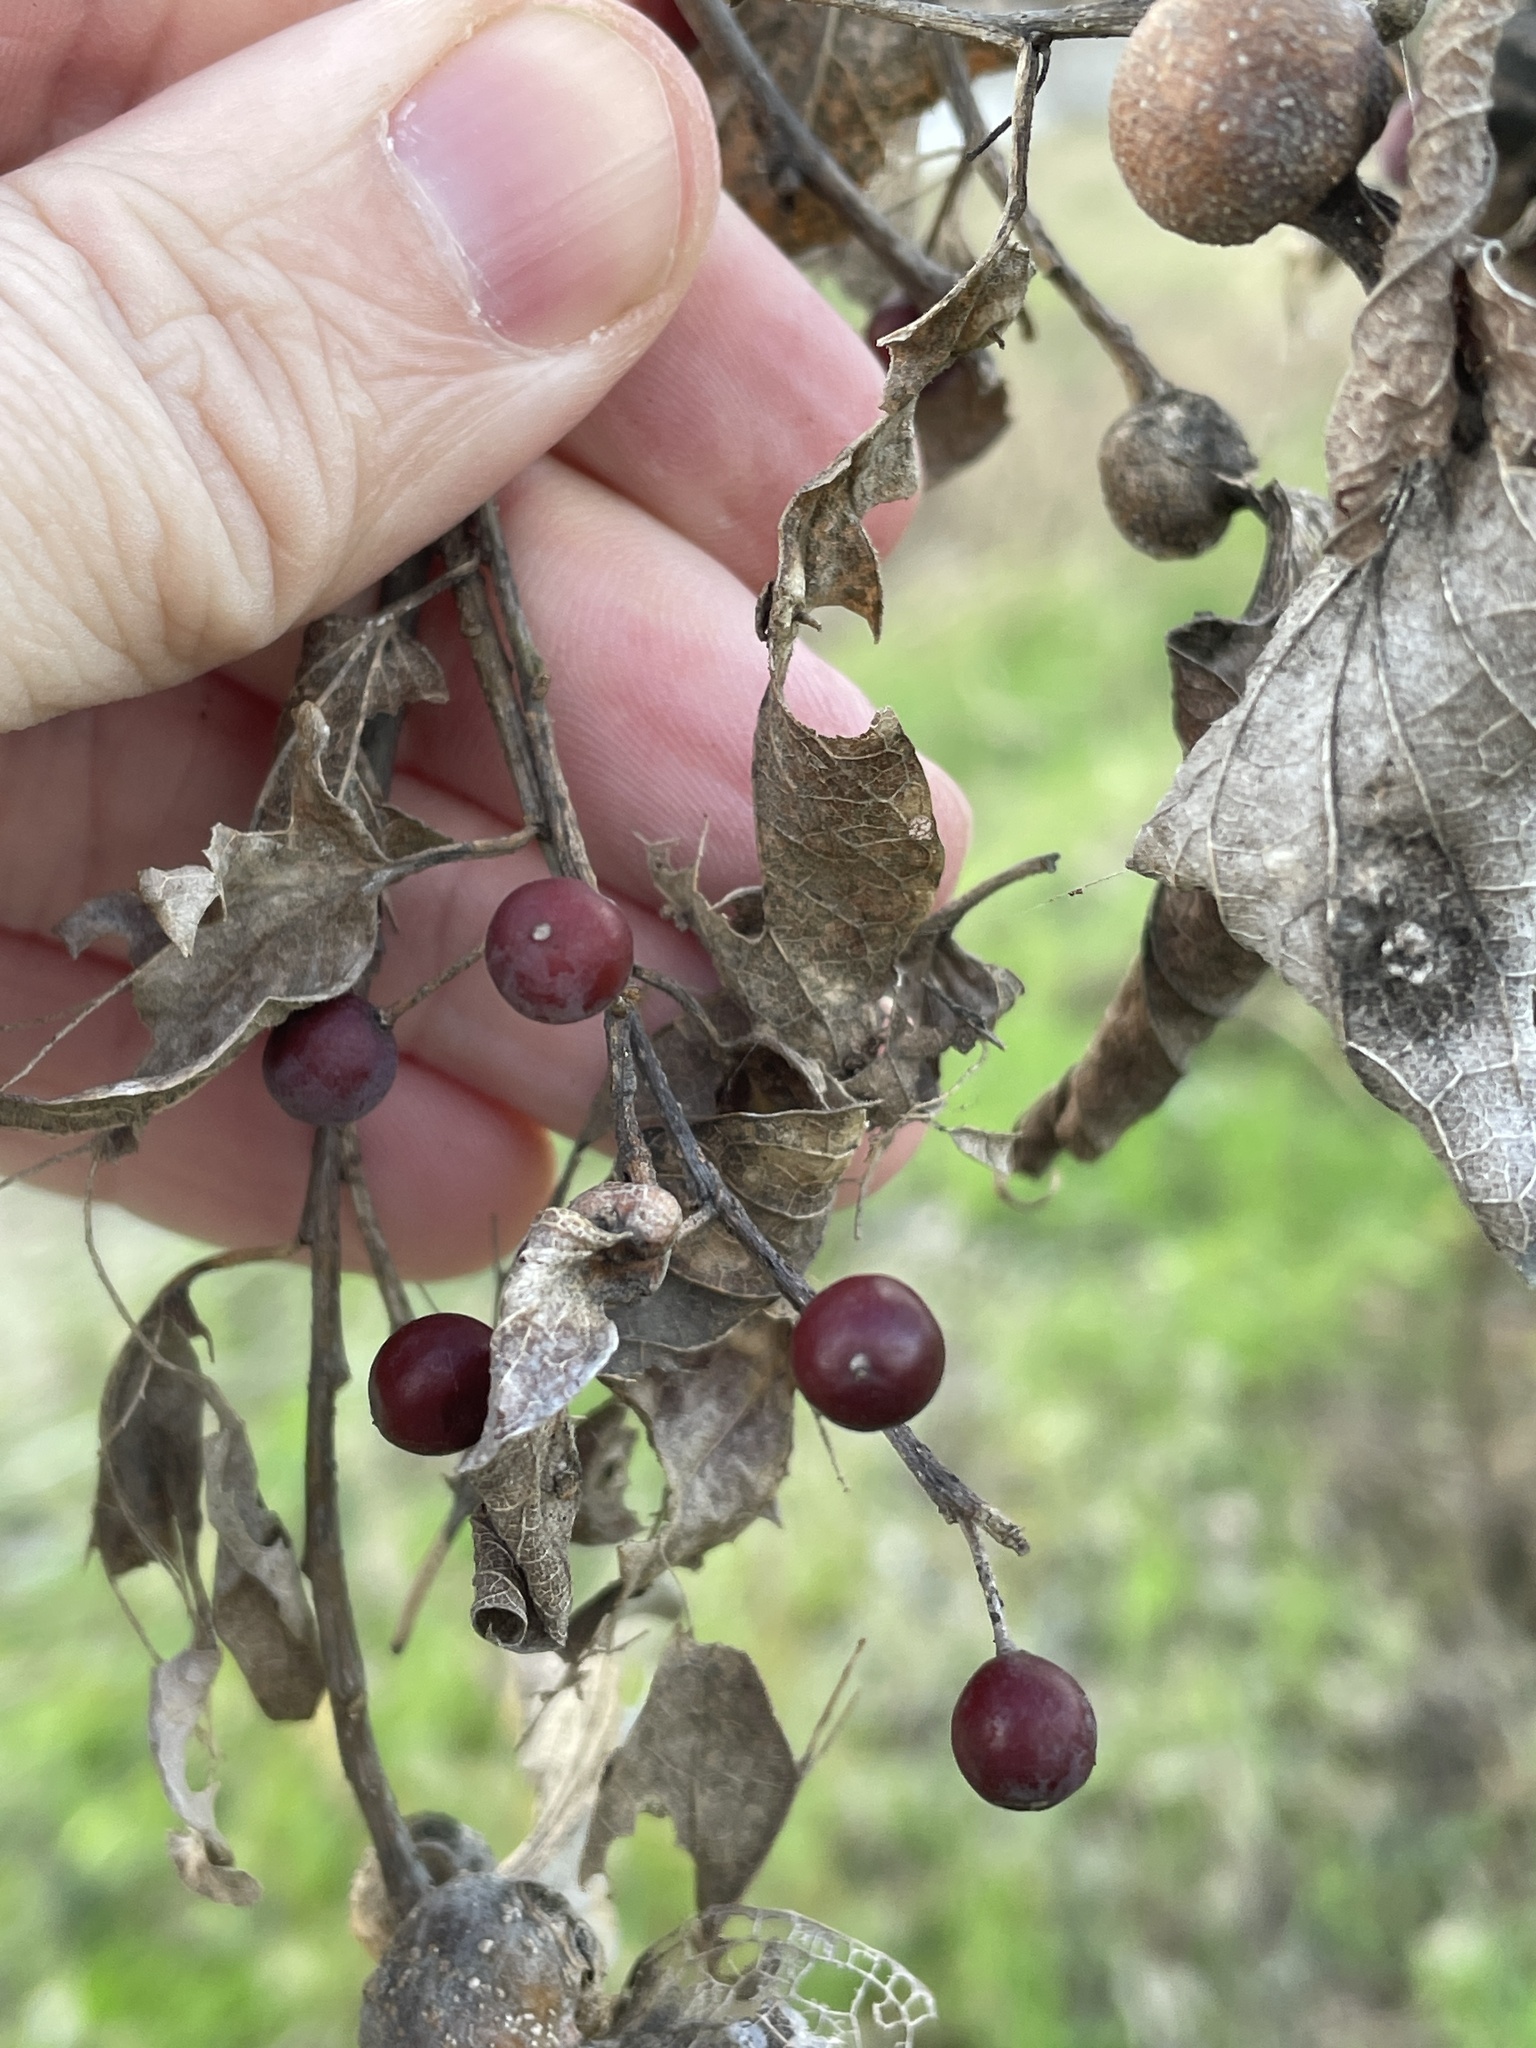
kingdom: Plantae
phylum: Tracheophyta
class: Magnoliopsida
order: Rosales
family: Cannabaceae
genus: Celtis
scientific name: Celtis laevigata
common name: Sugarberry
